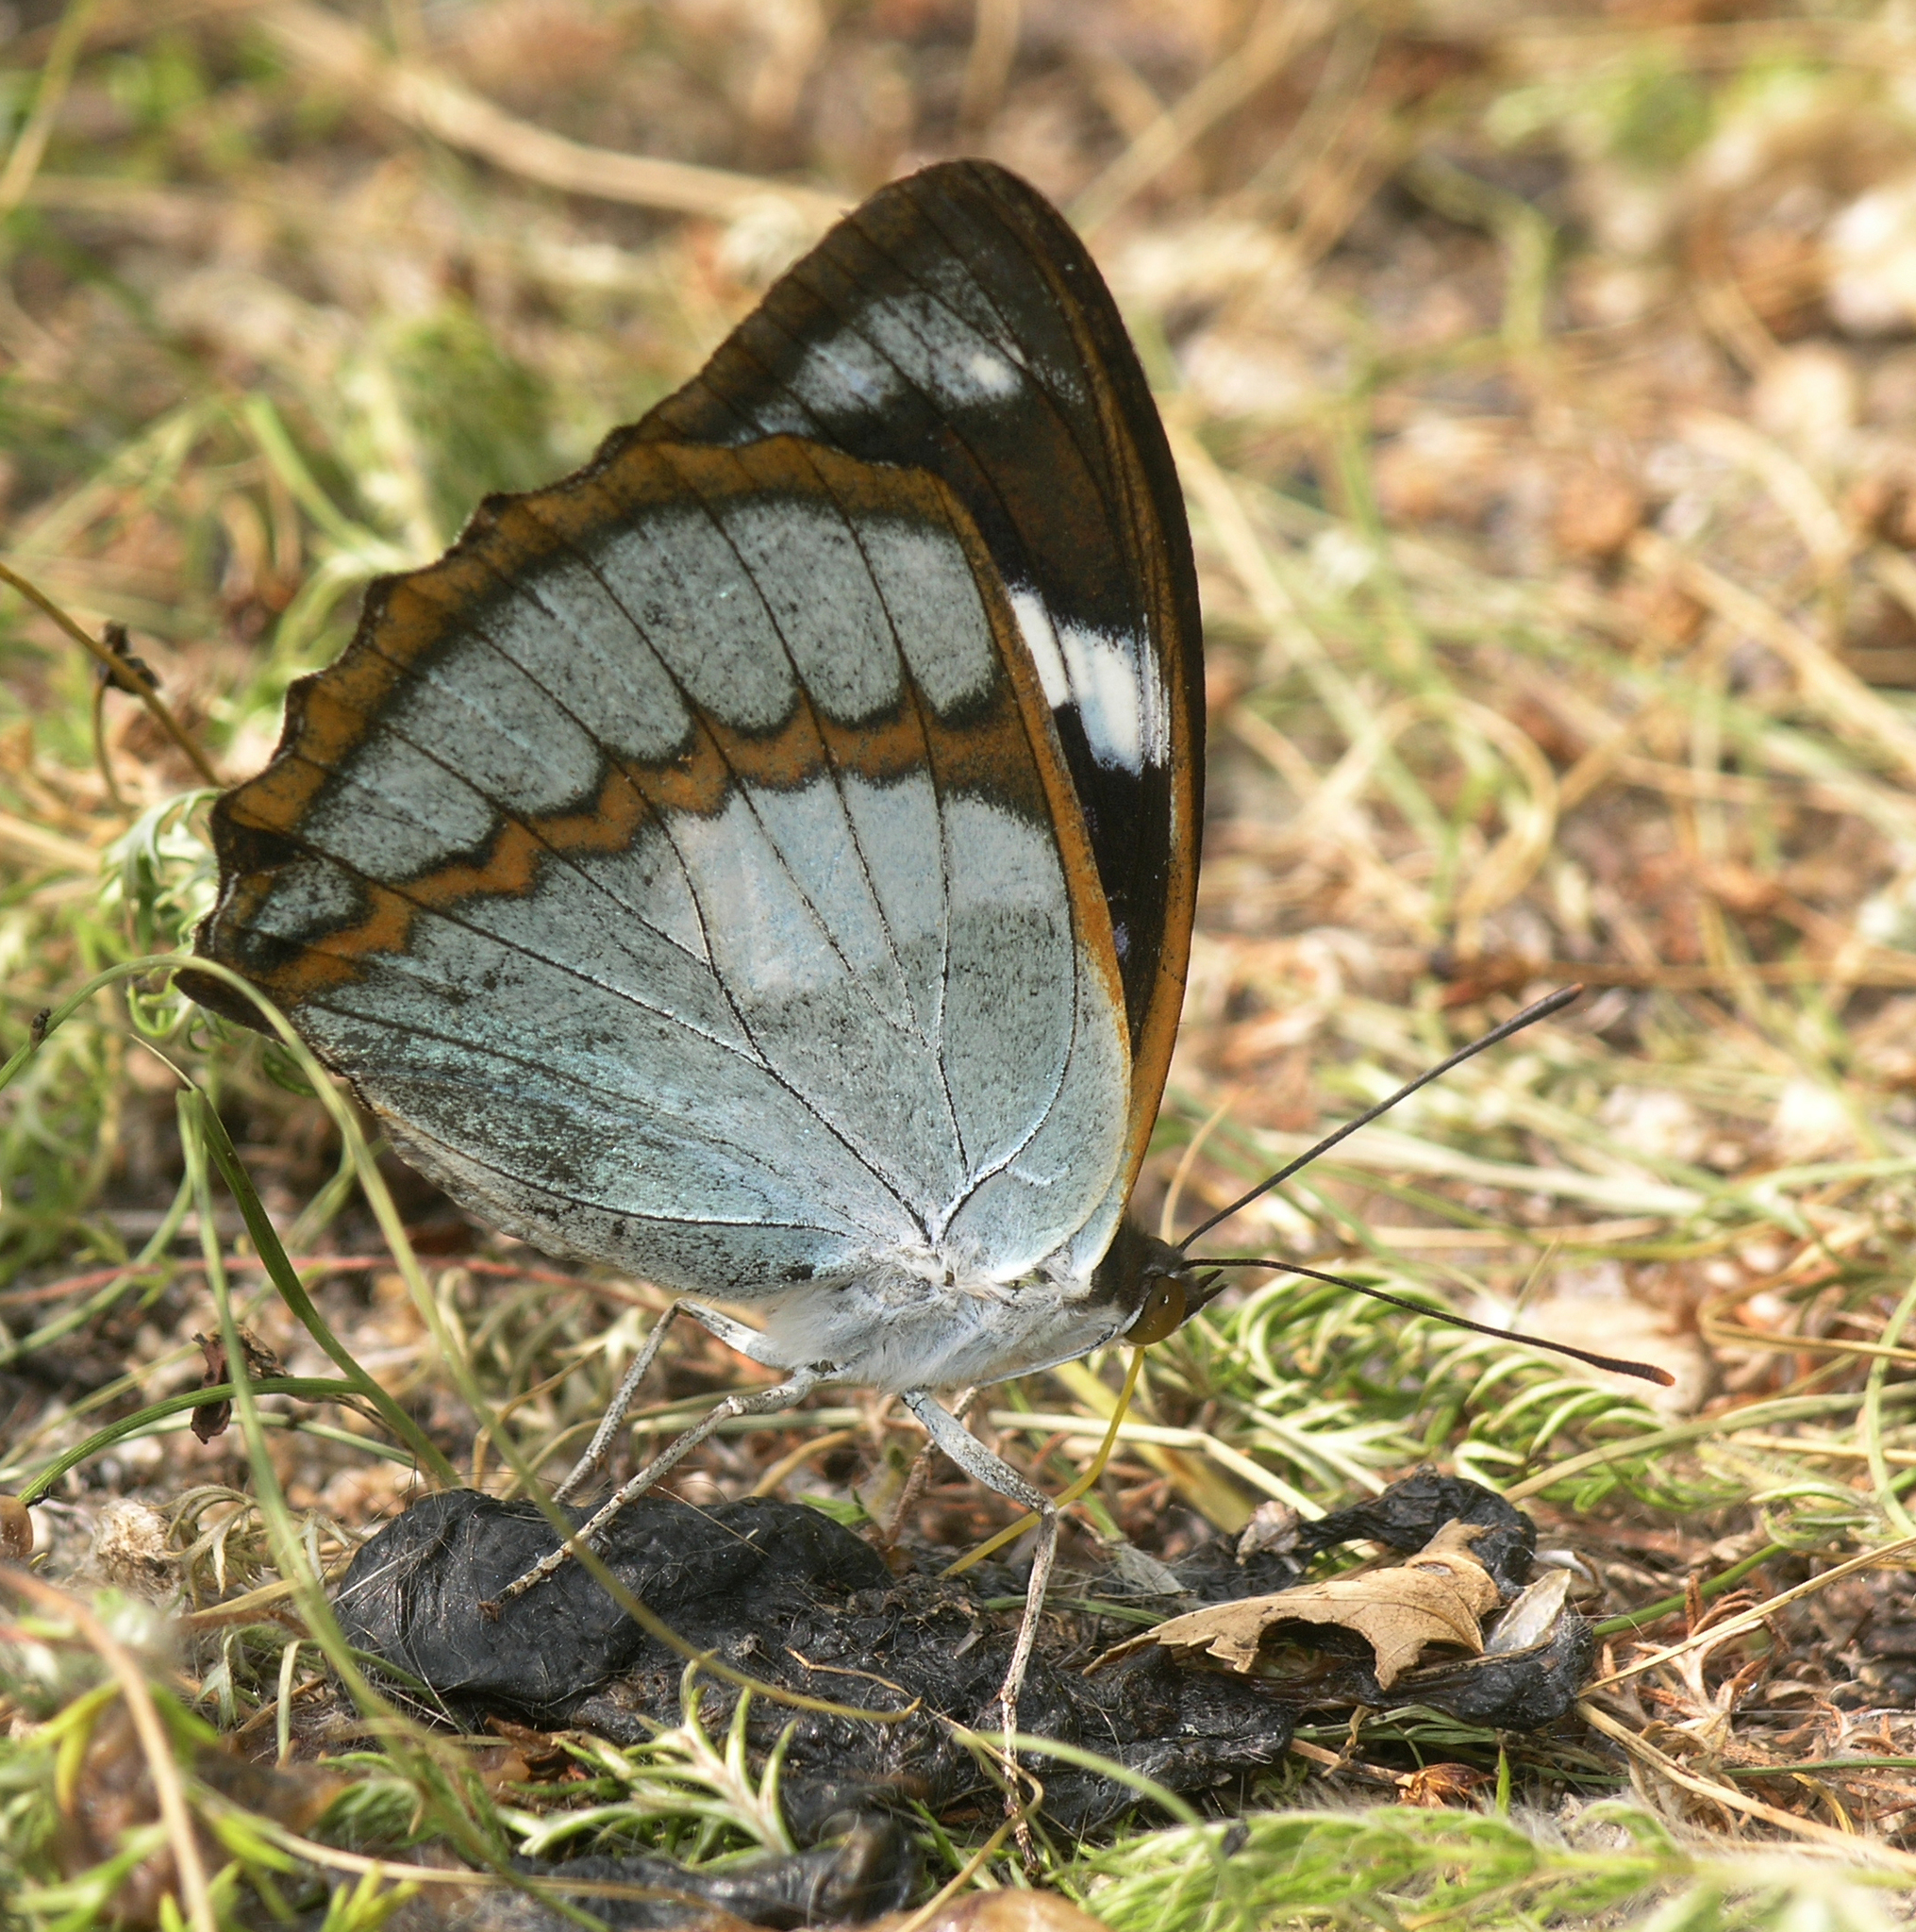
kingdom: Animalia
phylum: Arthropoda
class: Insecta
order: Lepidoptera
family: Nymphalidae
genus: Apatura
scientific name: Apatura Mimathyma schrencki
